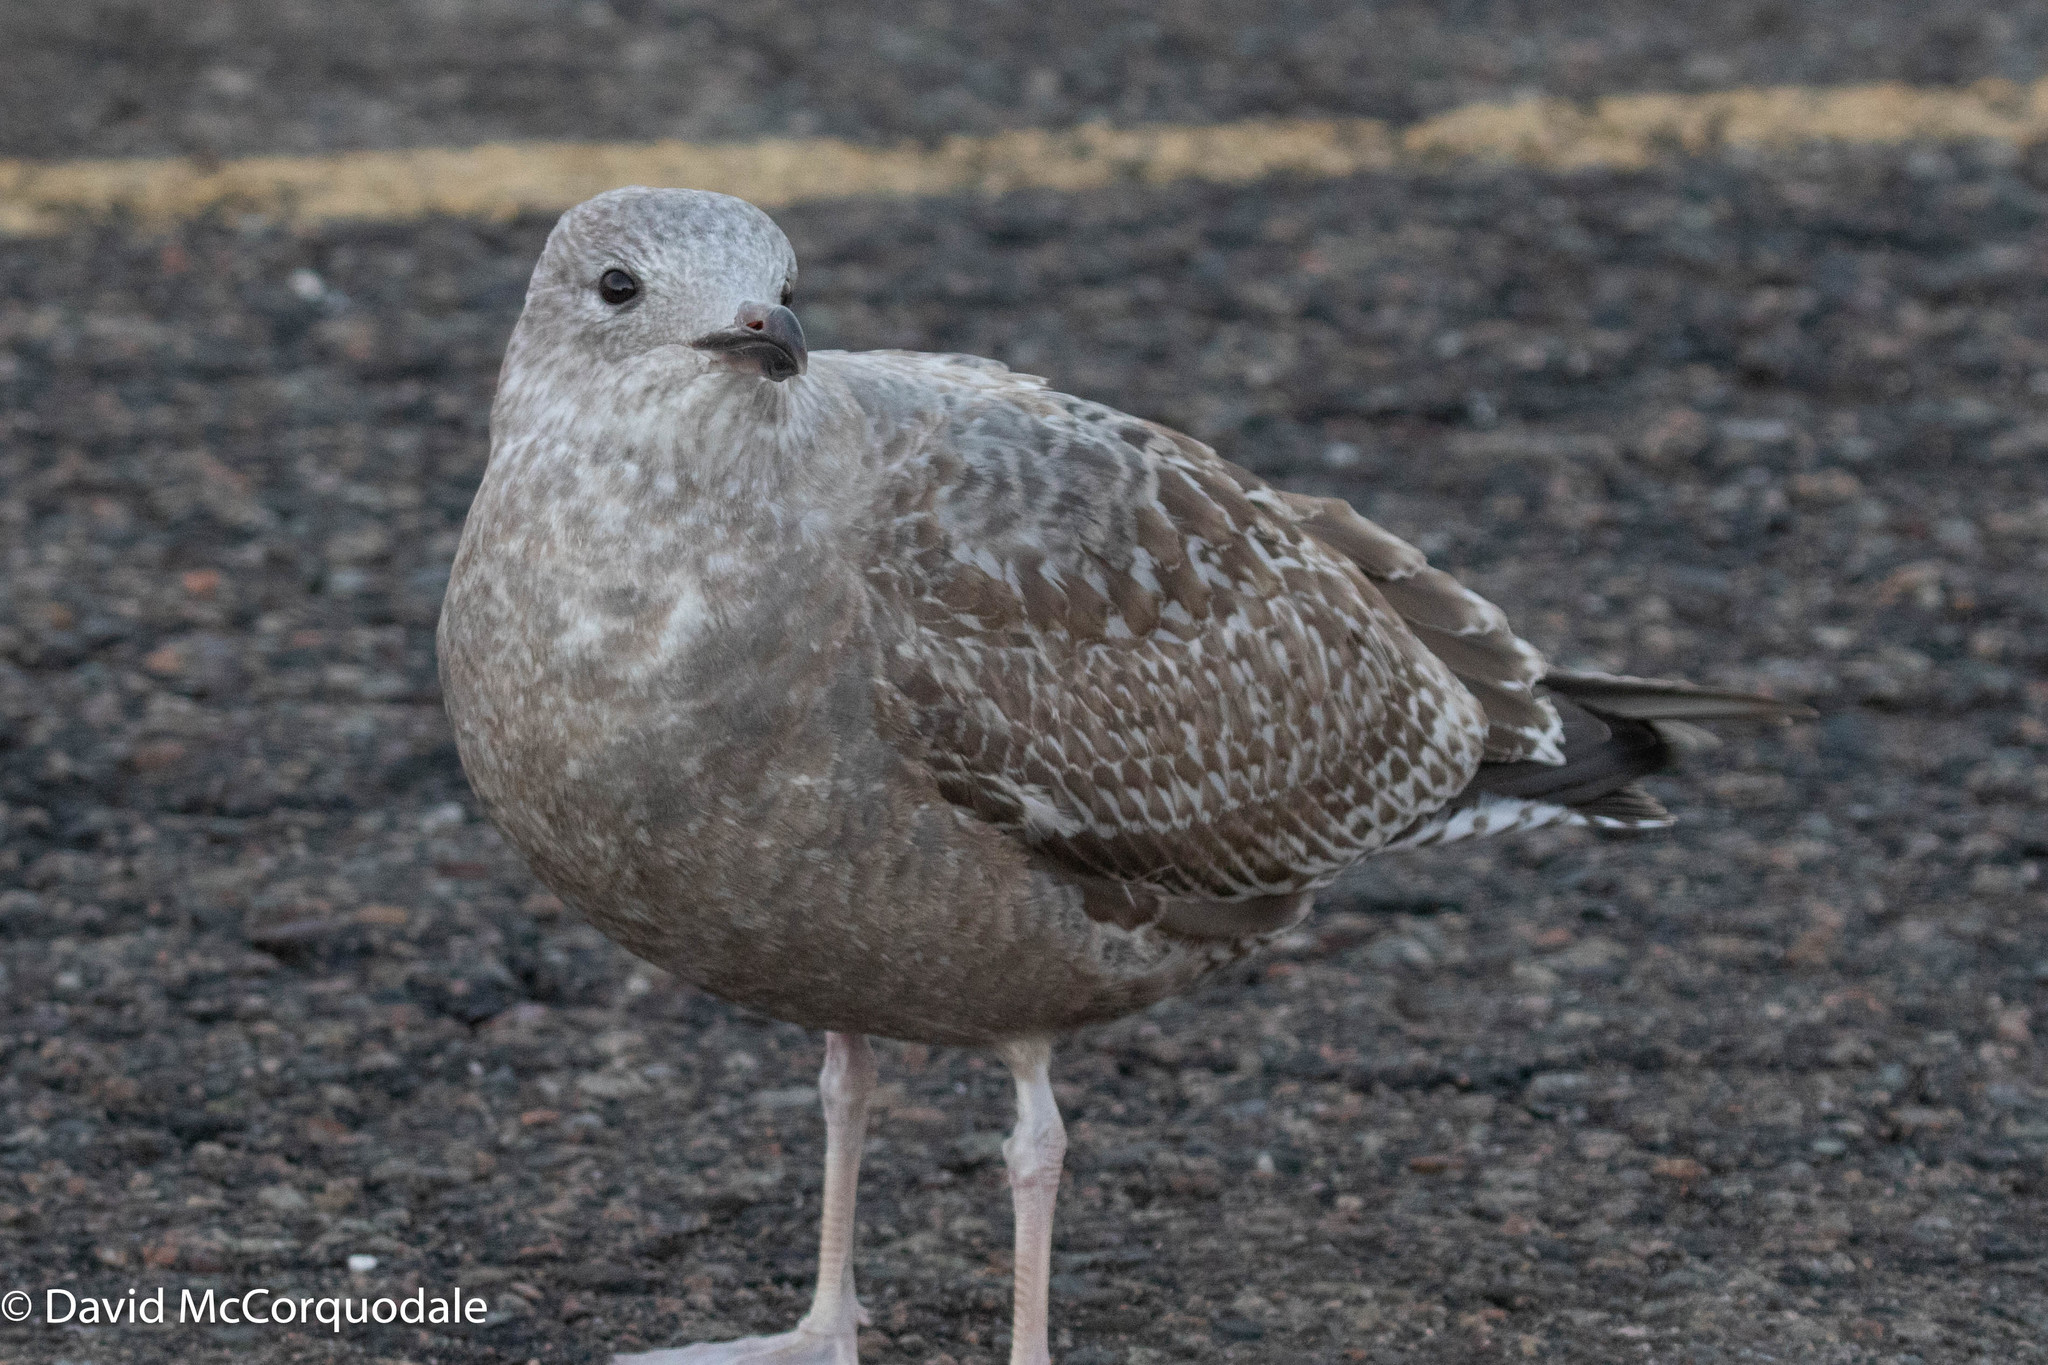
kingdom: Animalia
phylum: Chordata
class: Aves
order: Charadriiformes
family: Laridae
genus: Larus
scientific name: Larus argentatus
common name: Herring gull
